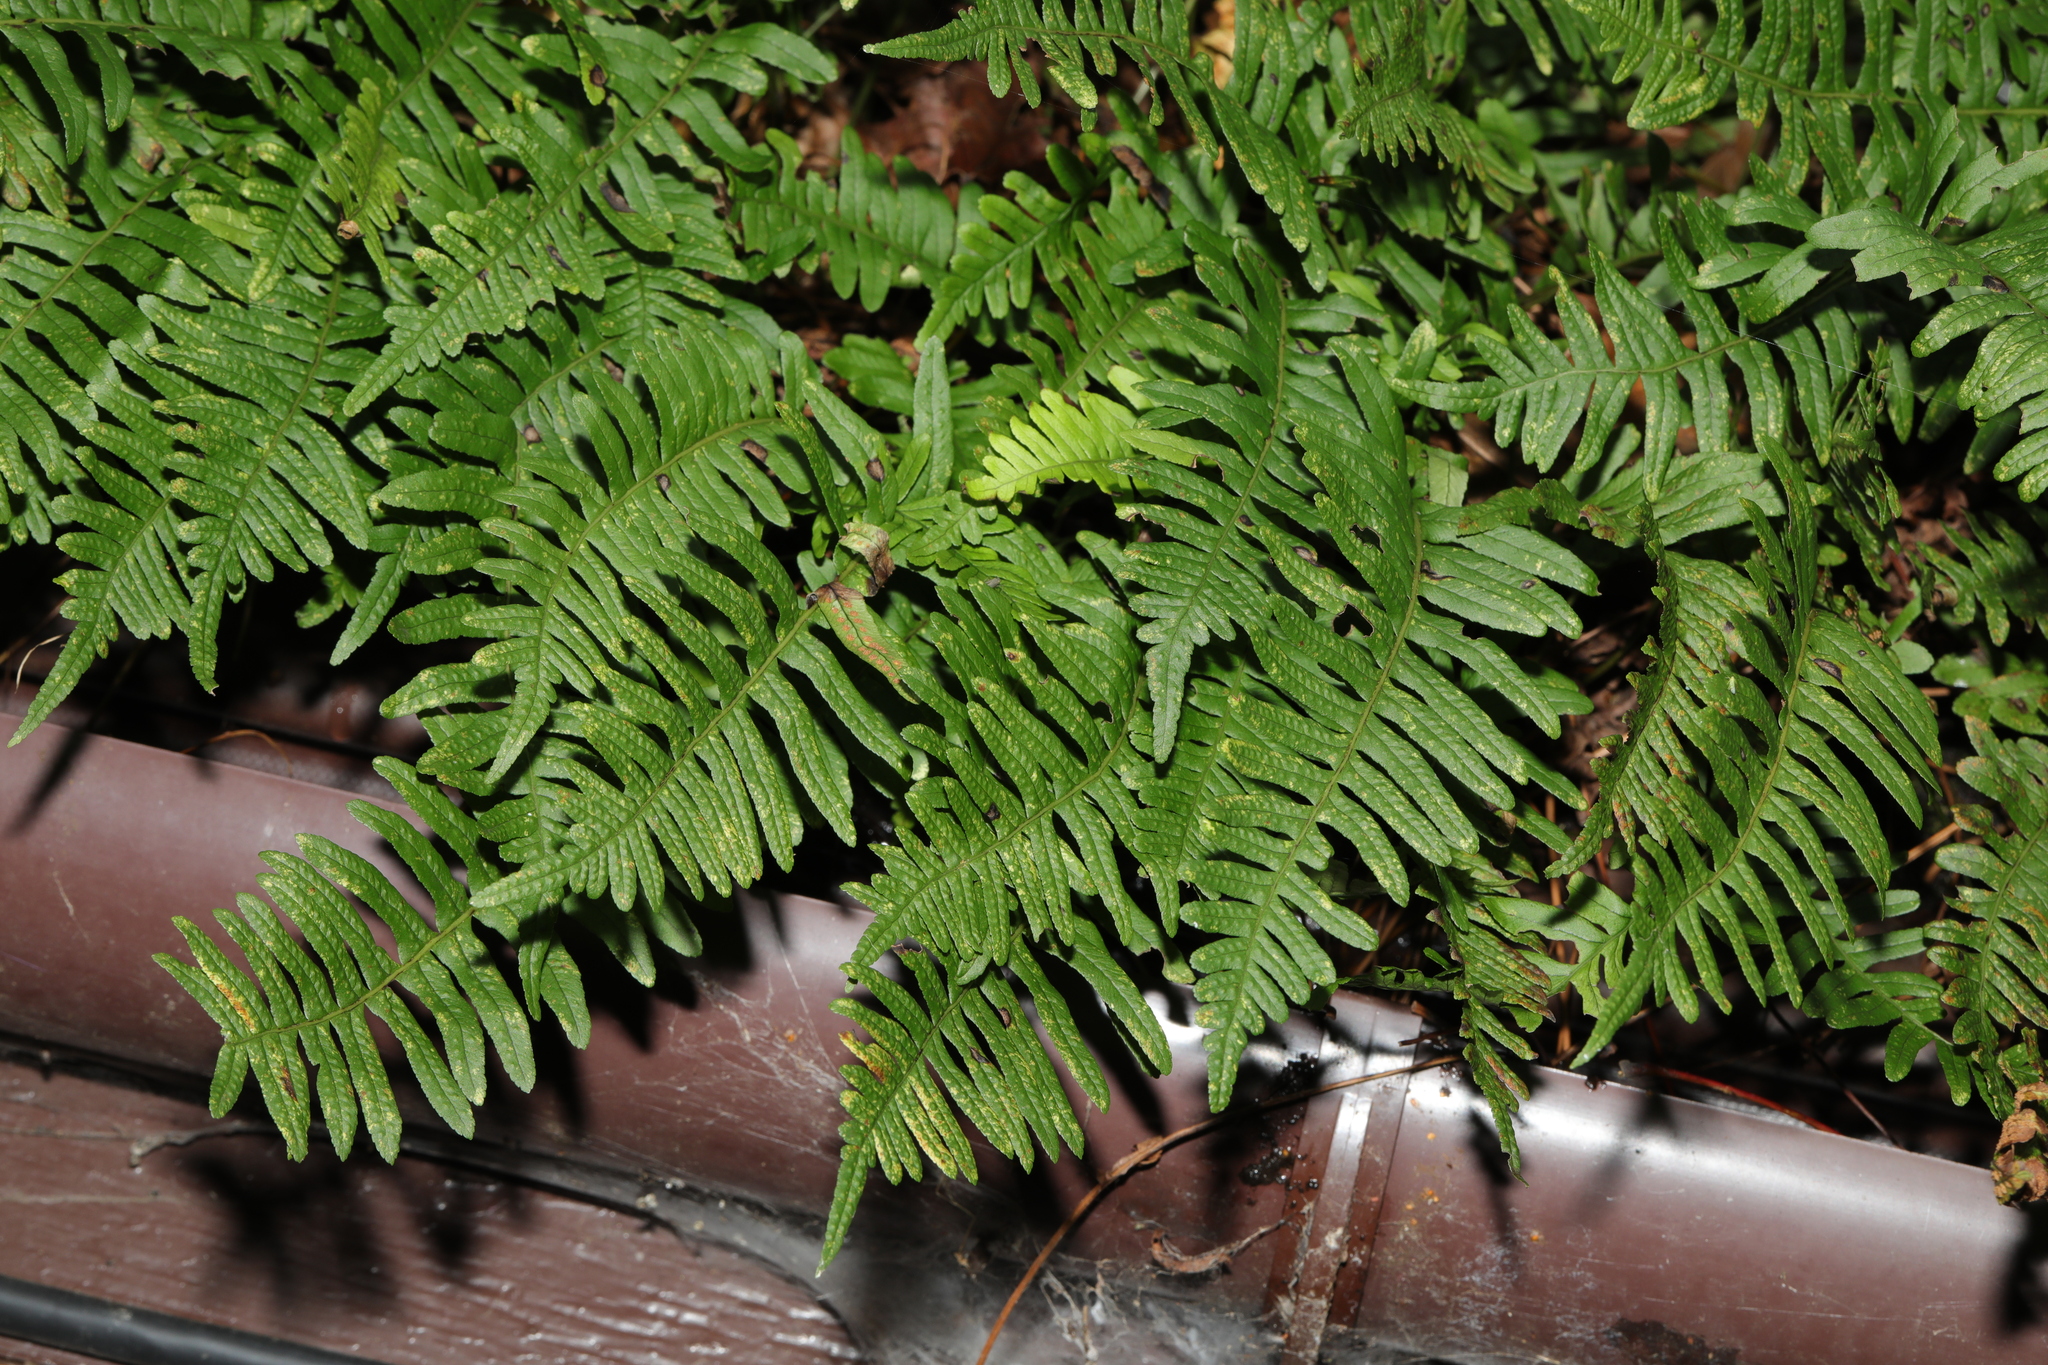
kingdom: Plantae
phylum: Tracheophyta
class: Polypodiopsida
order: Polypodiales
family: Polypodiaceae
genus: Polypodium
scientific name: Polypodium interjectum
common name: Intermediate polypody
